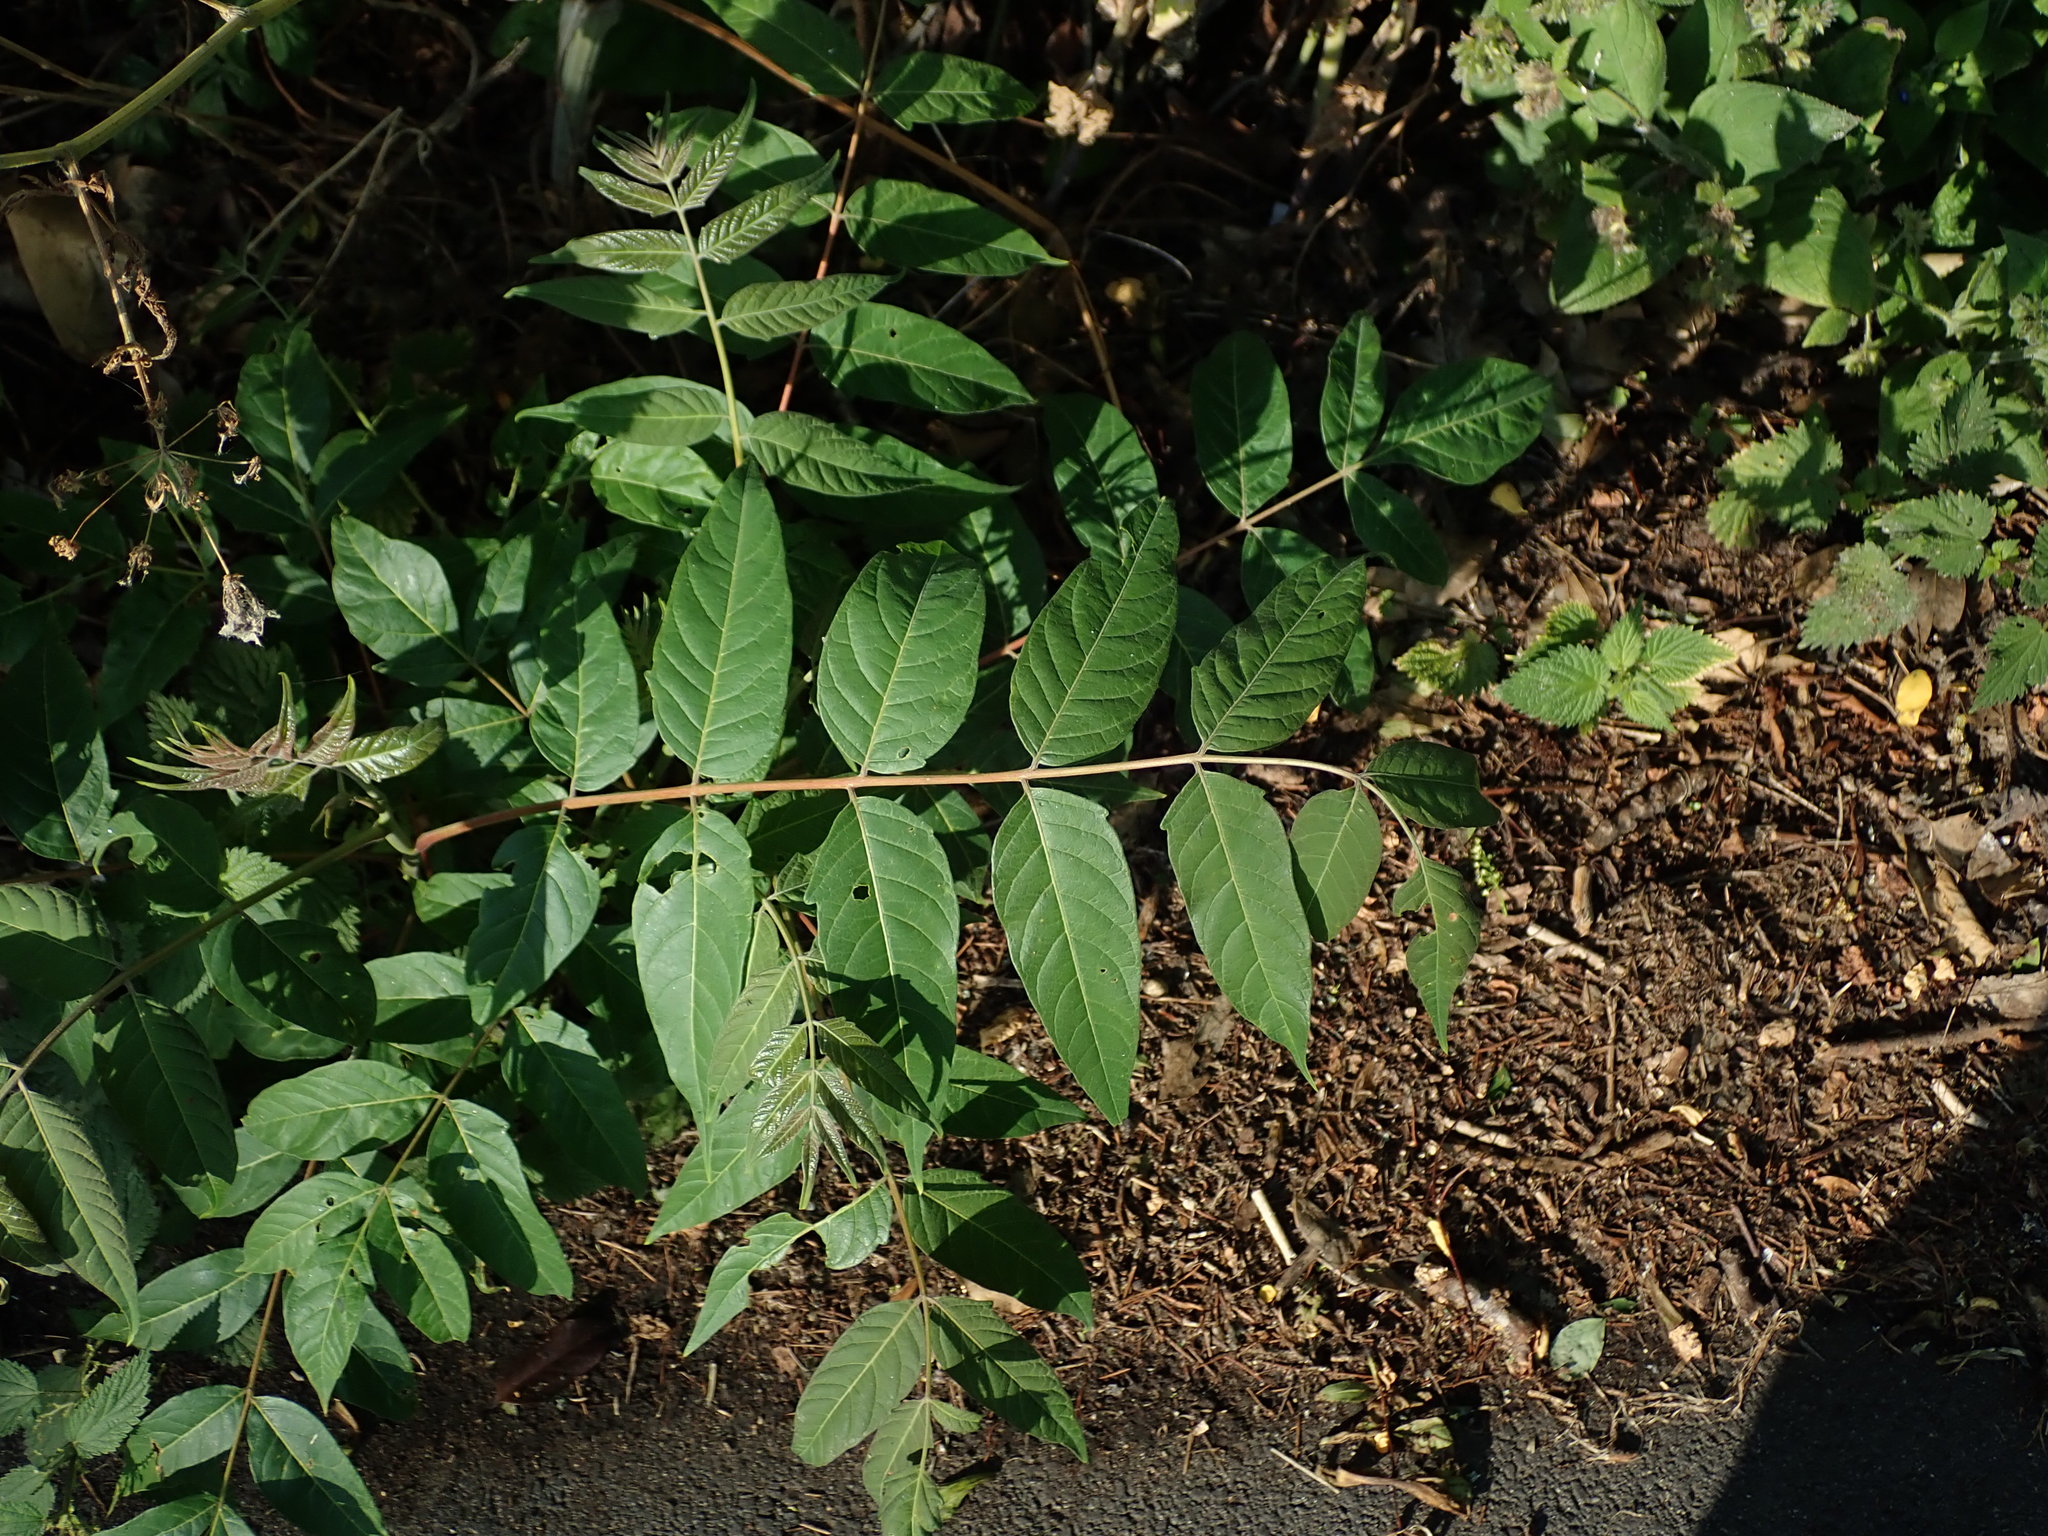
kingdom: Plantae
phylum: Tracheophyta
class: Magnoliopsida
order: Sapindales
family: Simaroubaceae
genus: Ailanthus
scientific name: Ailanthus altissima
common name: Tree-of-heaven
